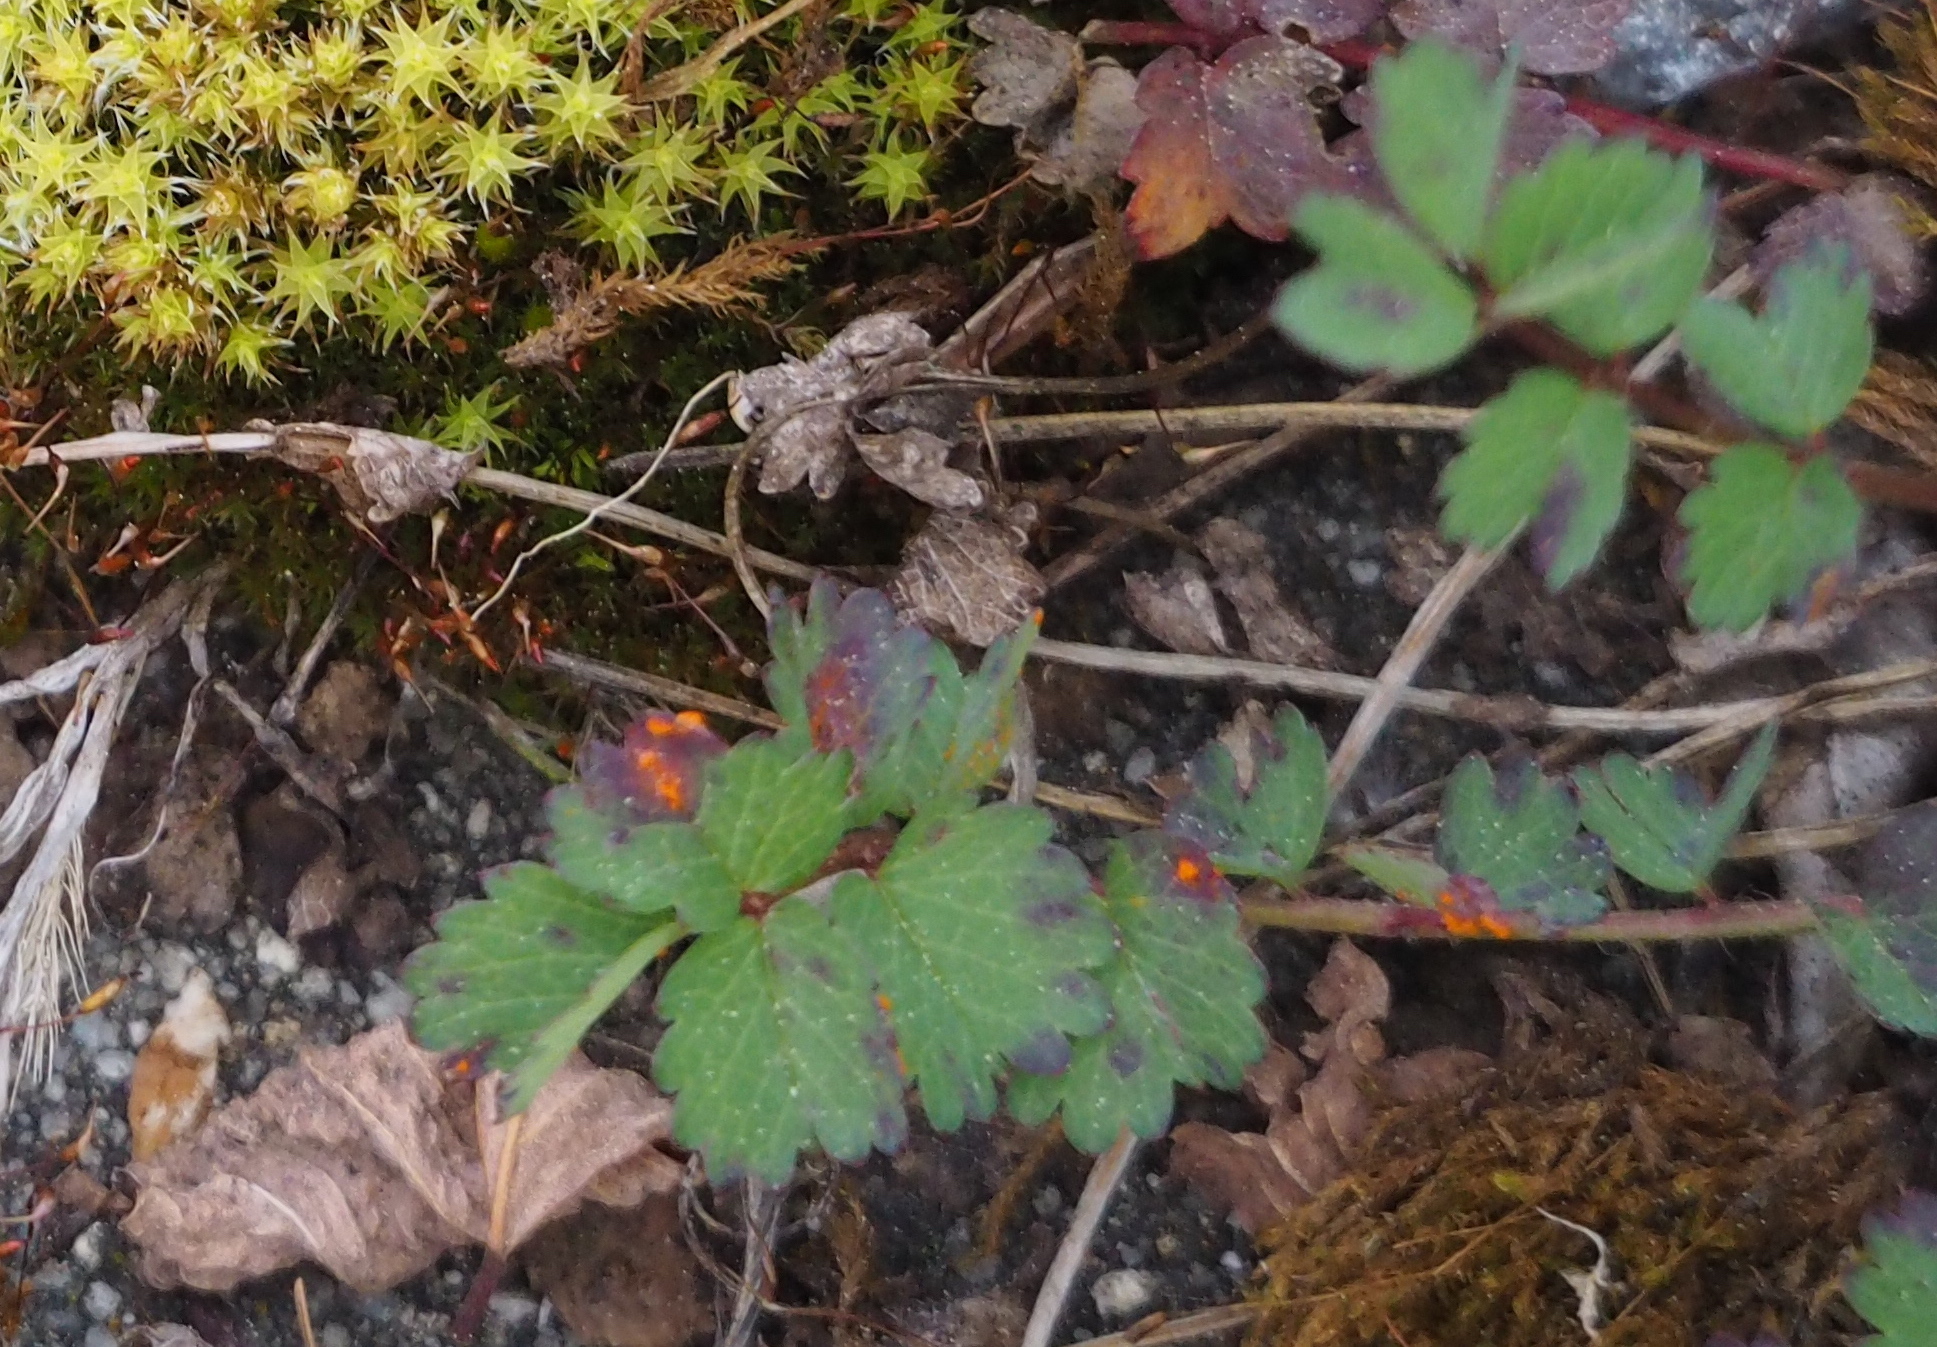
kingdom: Fungi
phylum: Basidiomycota
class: Pucciniomycetes
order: Pucciniales
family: Phragmidiaceae
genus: Phragmidium
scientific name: Phragmidium sanguisorbae
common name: Salad burnet rust
